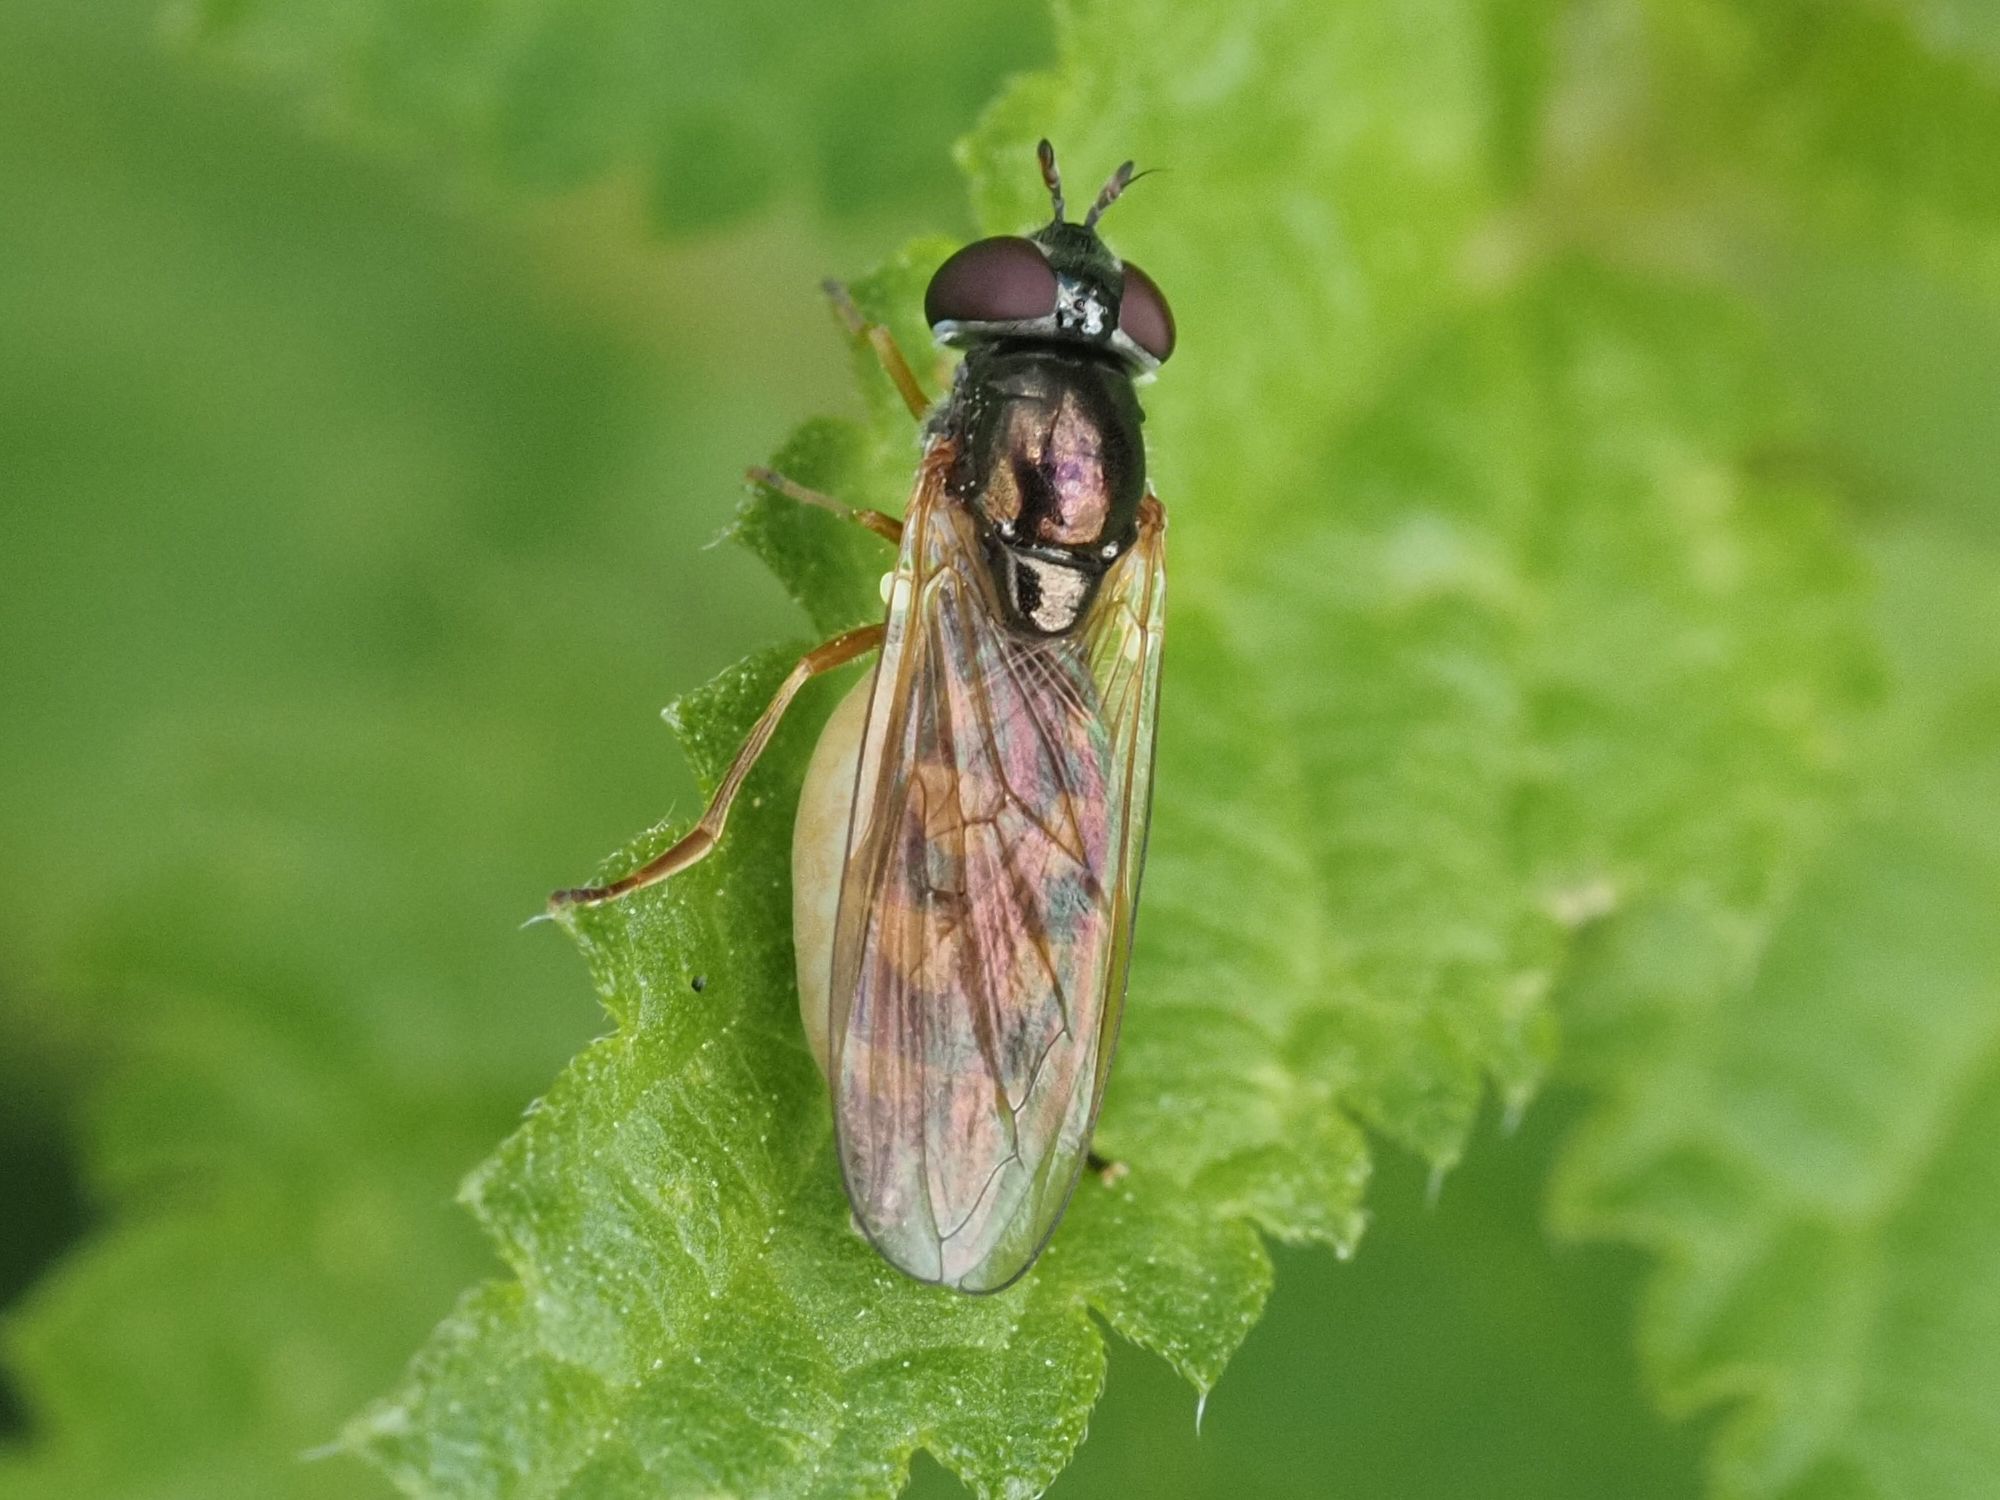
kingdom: Animalia
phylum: Arthropoda
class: Insecta
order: Diptera
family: Syrphidae
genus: Melanostoma
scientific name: Melanostoma mellina
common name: Hover fly
